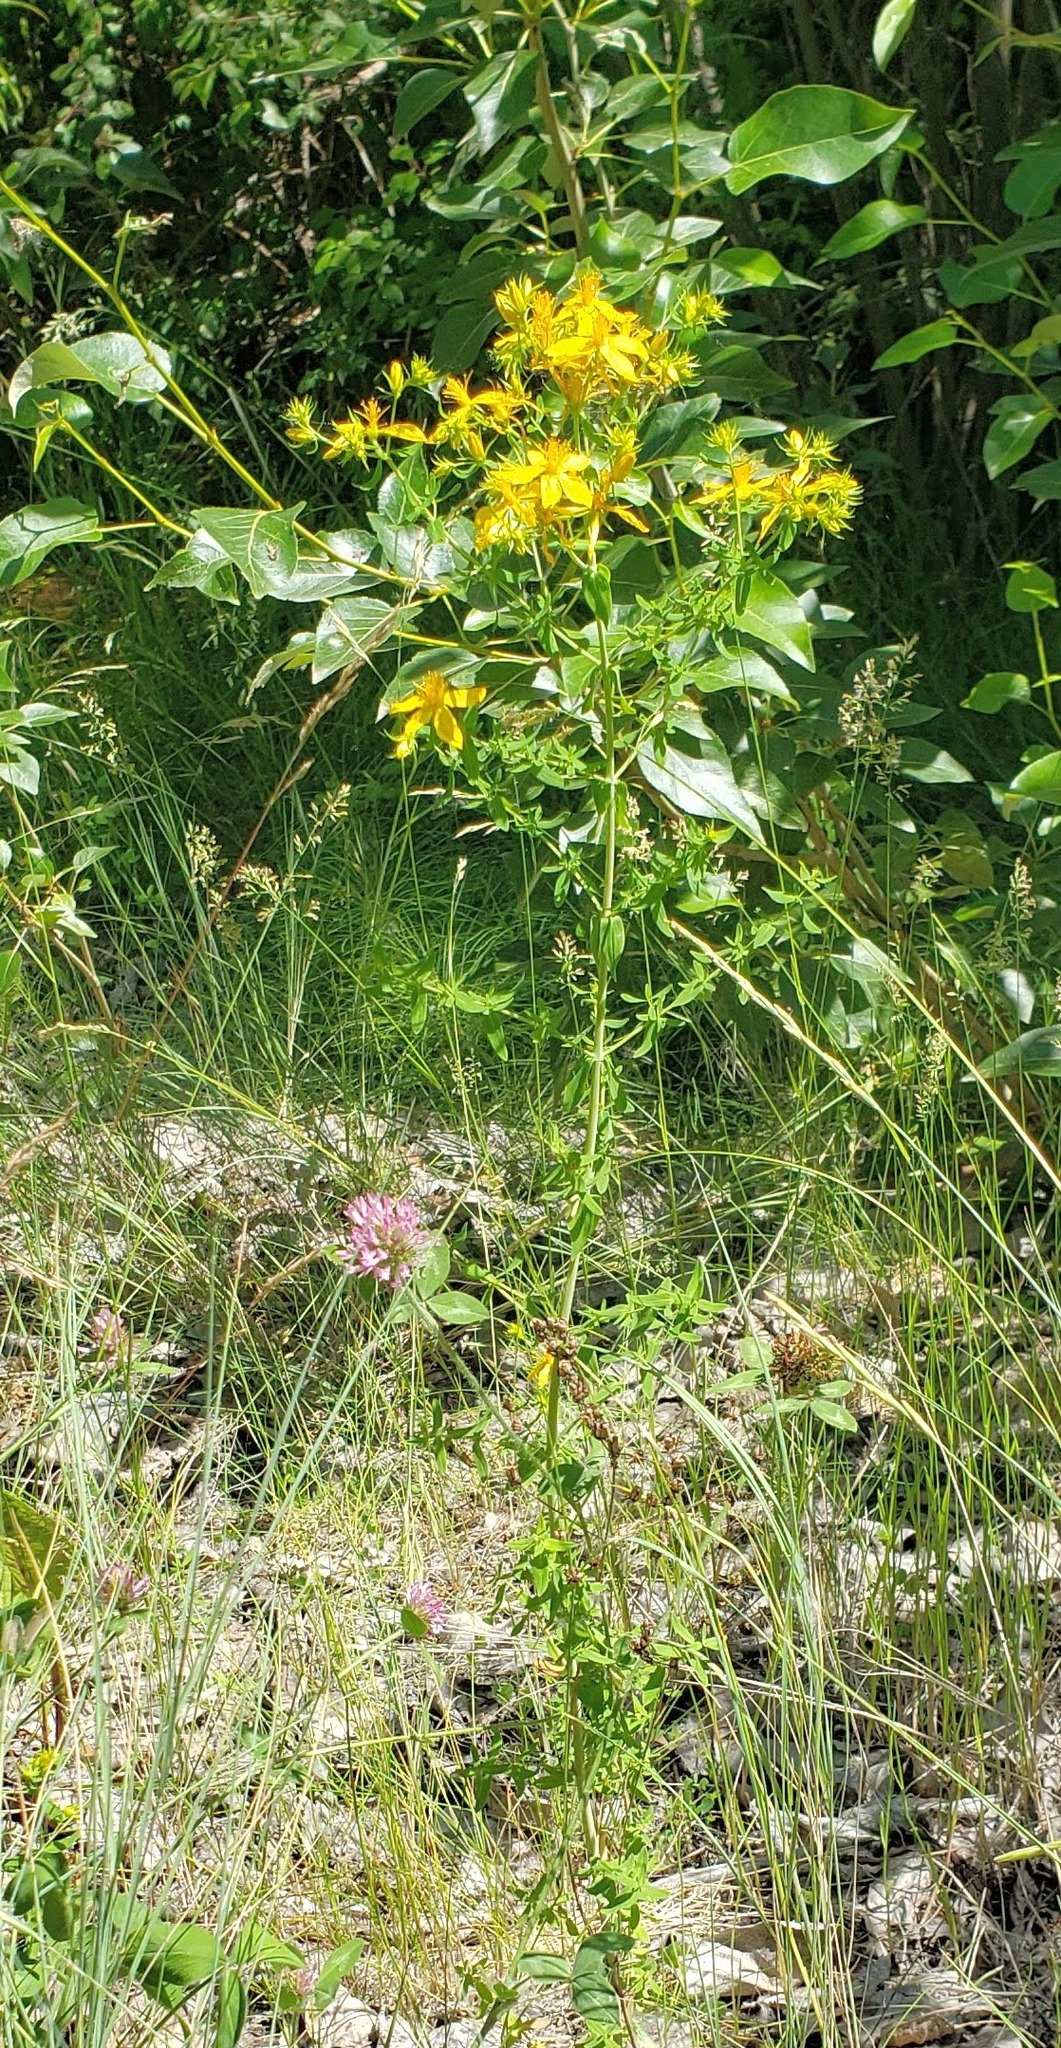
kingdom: Plantae
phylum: Tracheophyta
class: Magnoliopsida
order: Malpighiales
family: Hypericaceae
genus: Hypericum
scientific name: Hypericum perforatum
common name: Common st. johnswort
